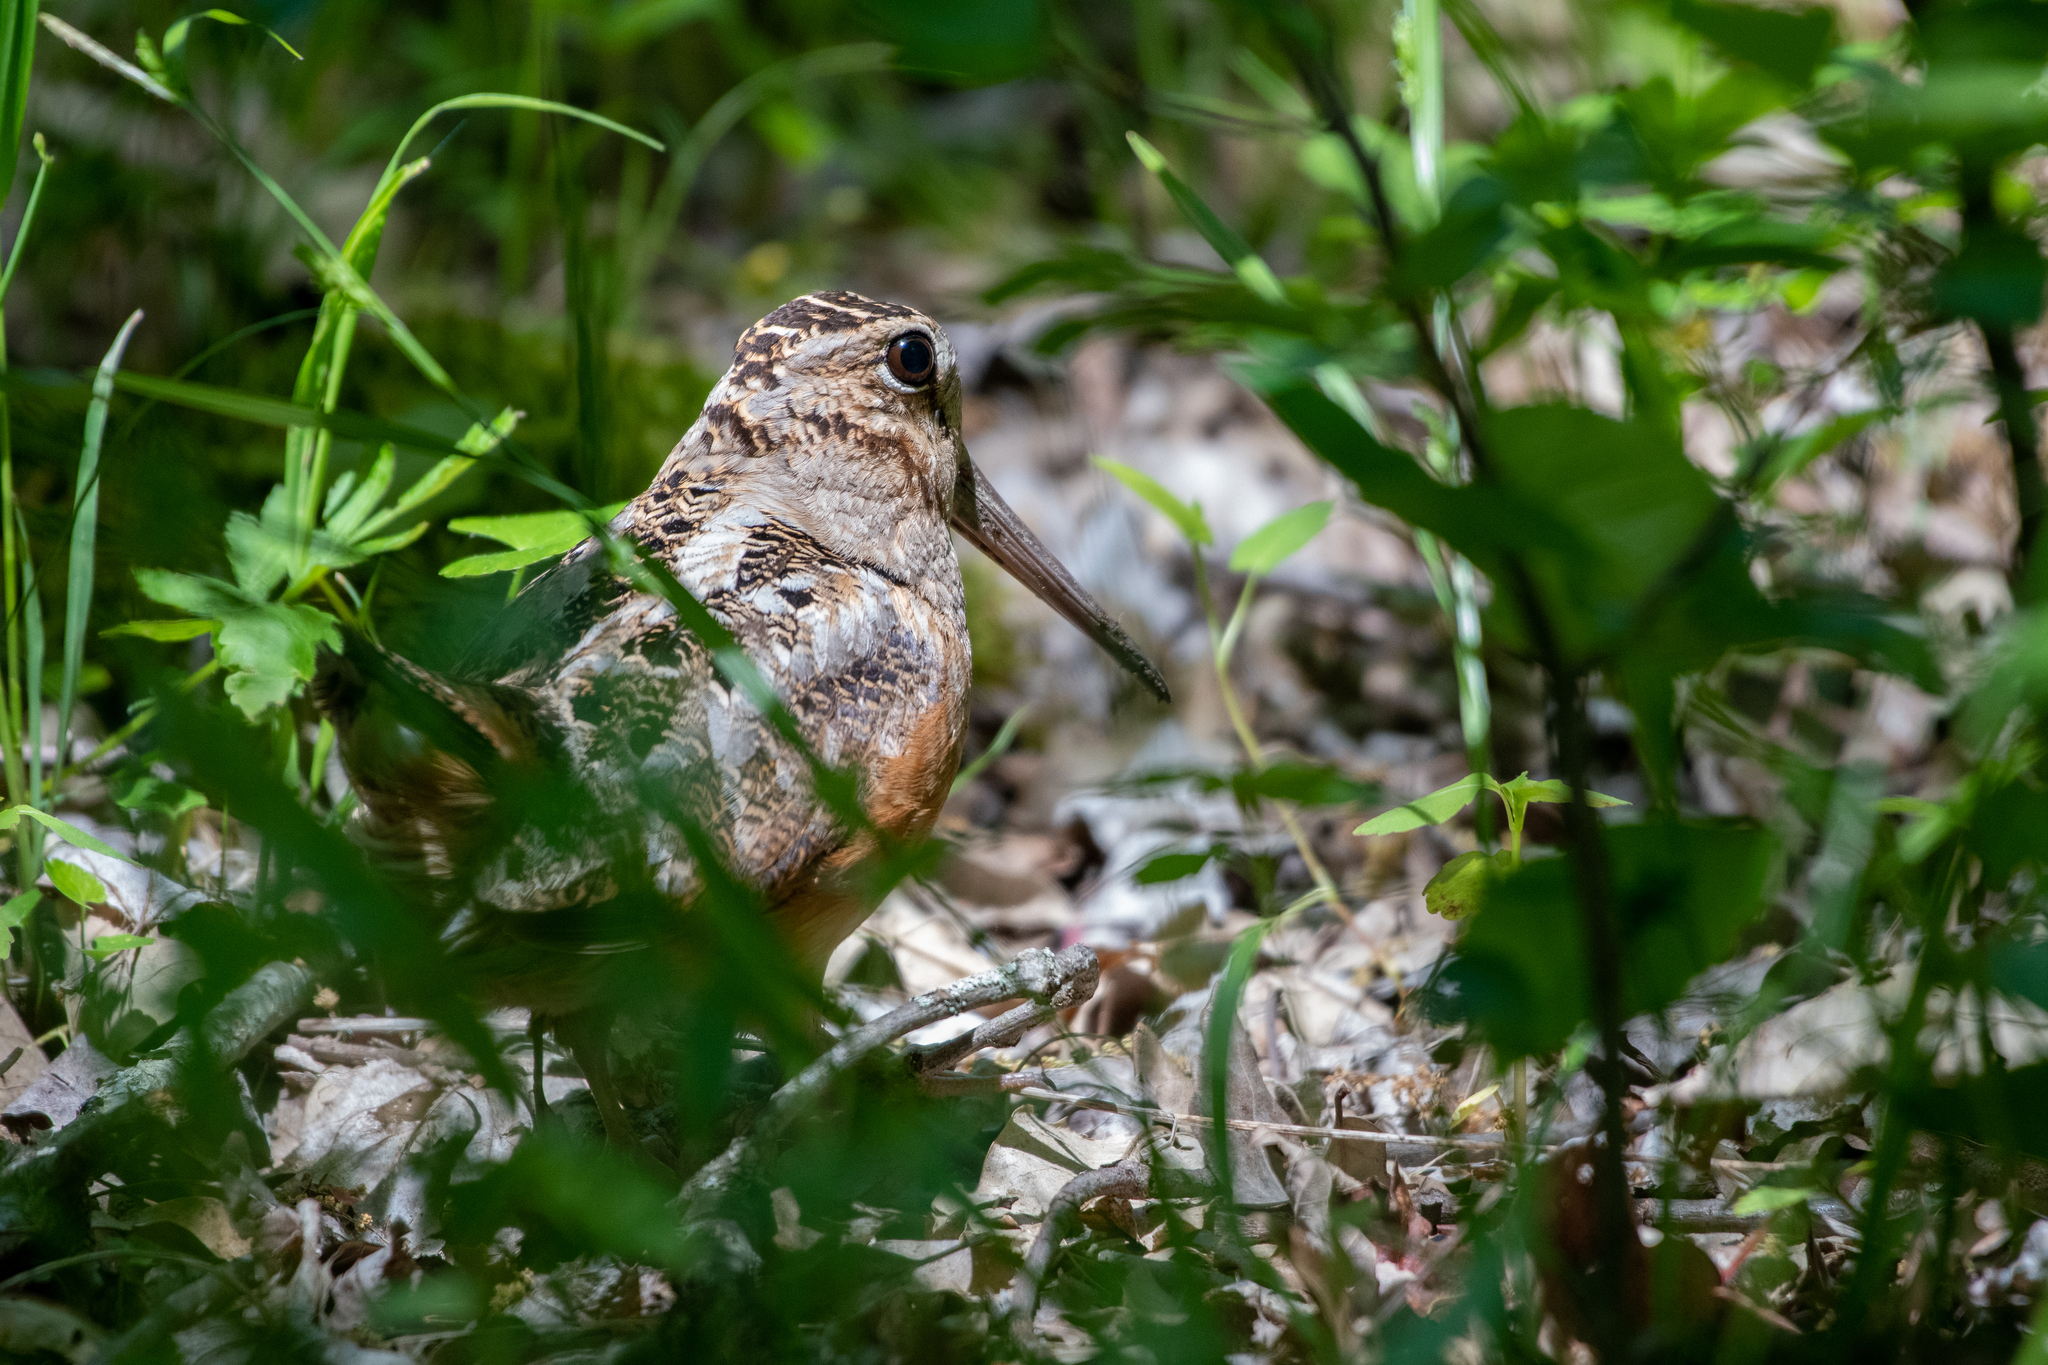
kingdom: Animalia
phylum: Chordata
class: Aves
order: Charadriiformes
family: Scolopacidae
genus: Scolopax
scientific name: Scolopax minor
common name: American woodcock
